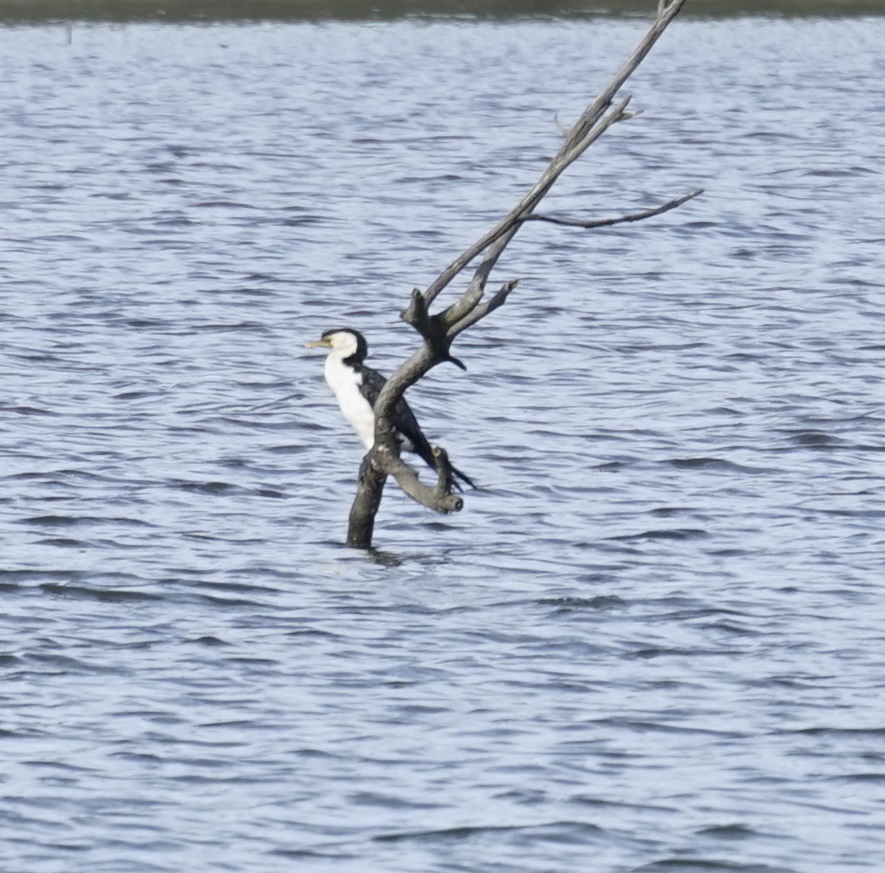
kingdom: Animalia
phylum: Chordata
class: Aves
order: Suliformes
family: Phalacrocoracidae
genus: Microcarbo
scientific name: Microcarbo melanoleucos
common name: Little pied cormorant
